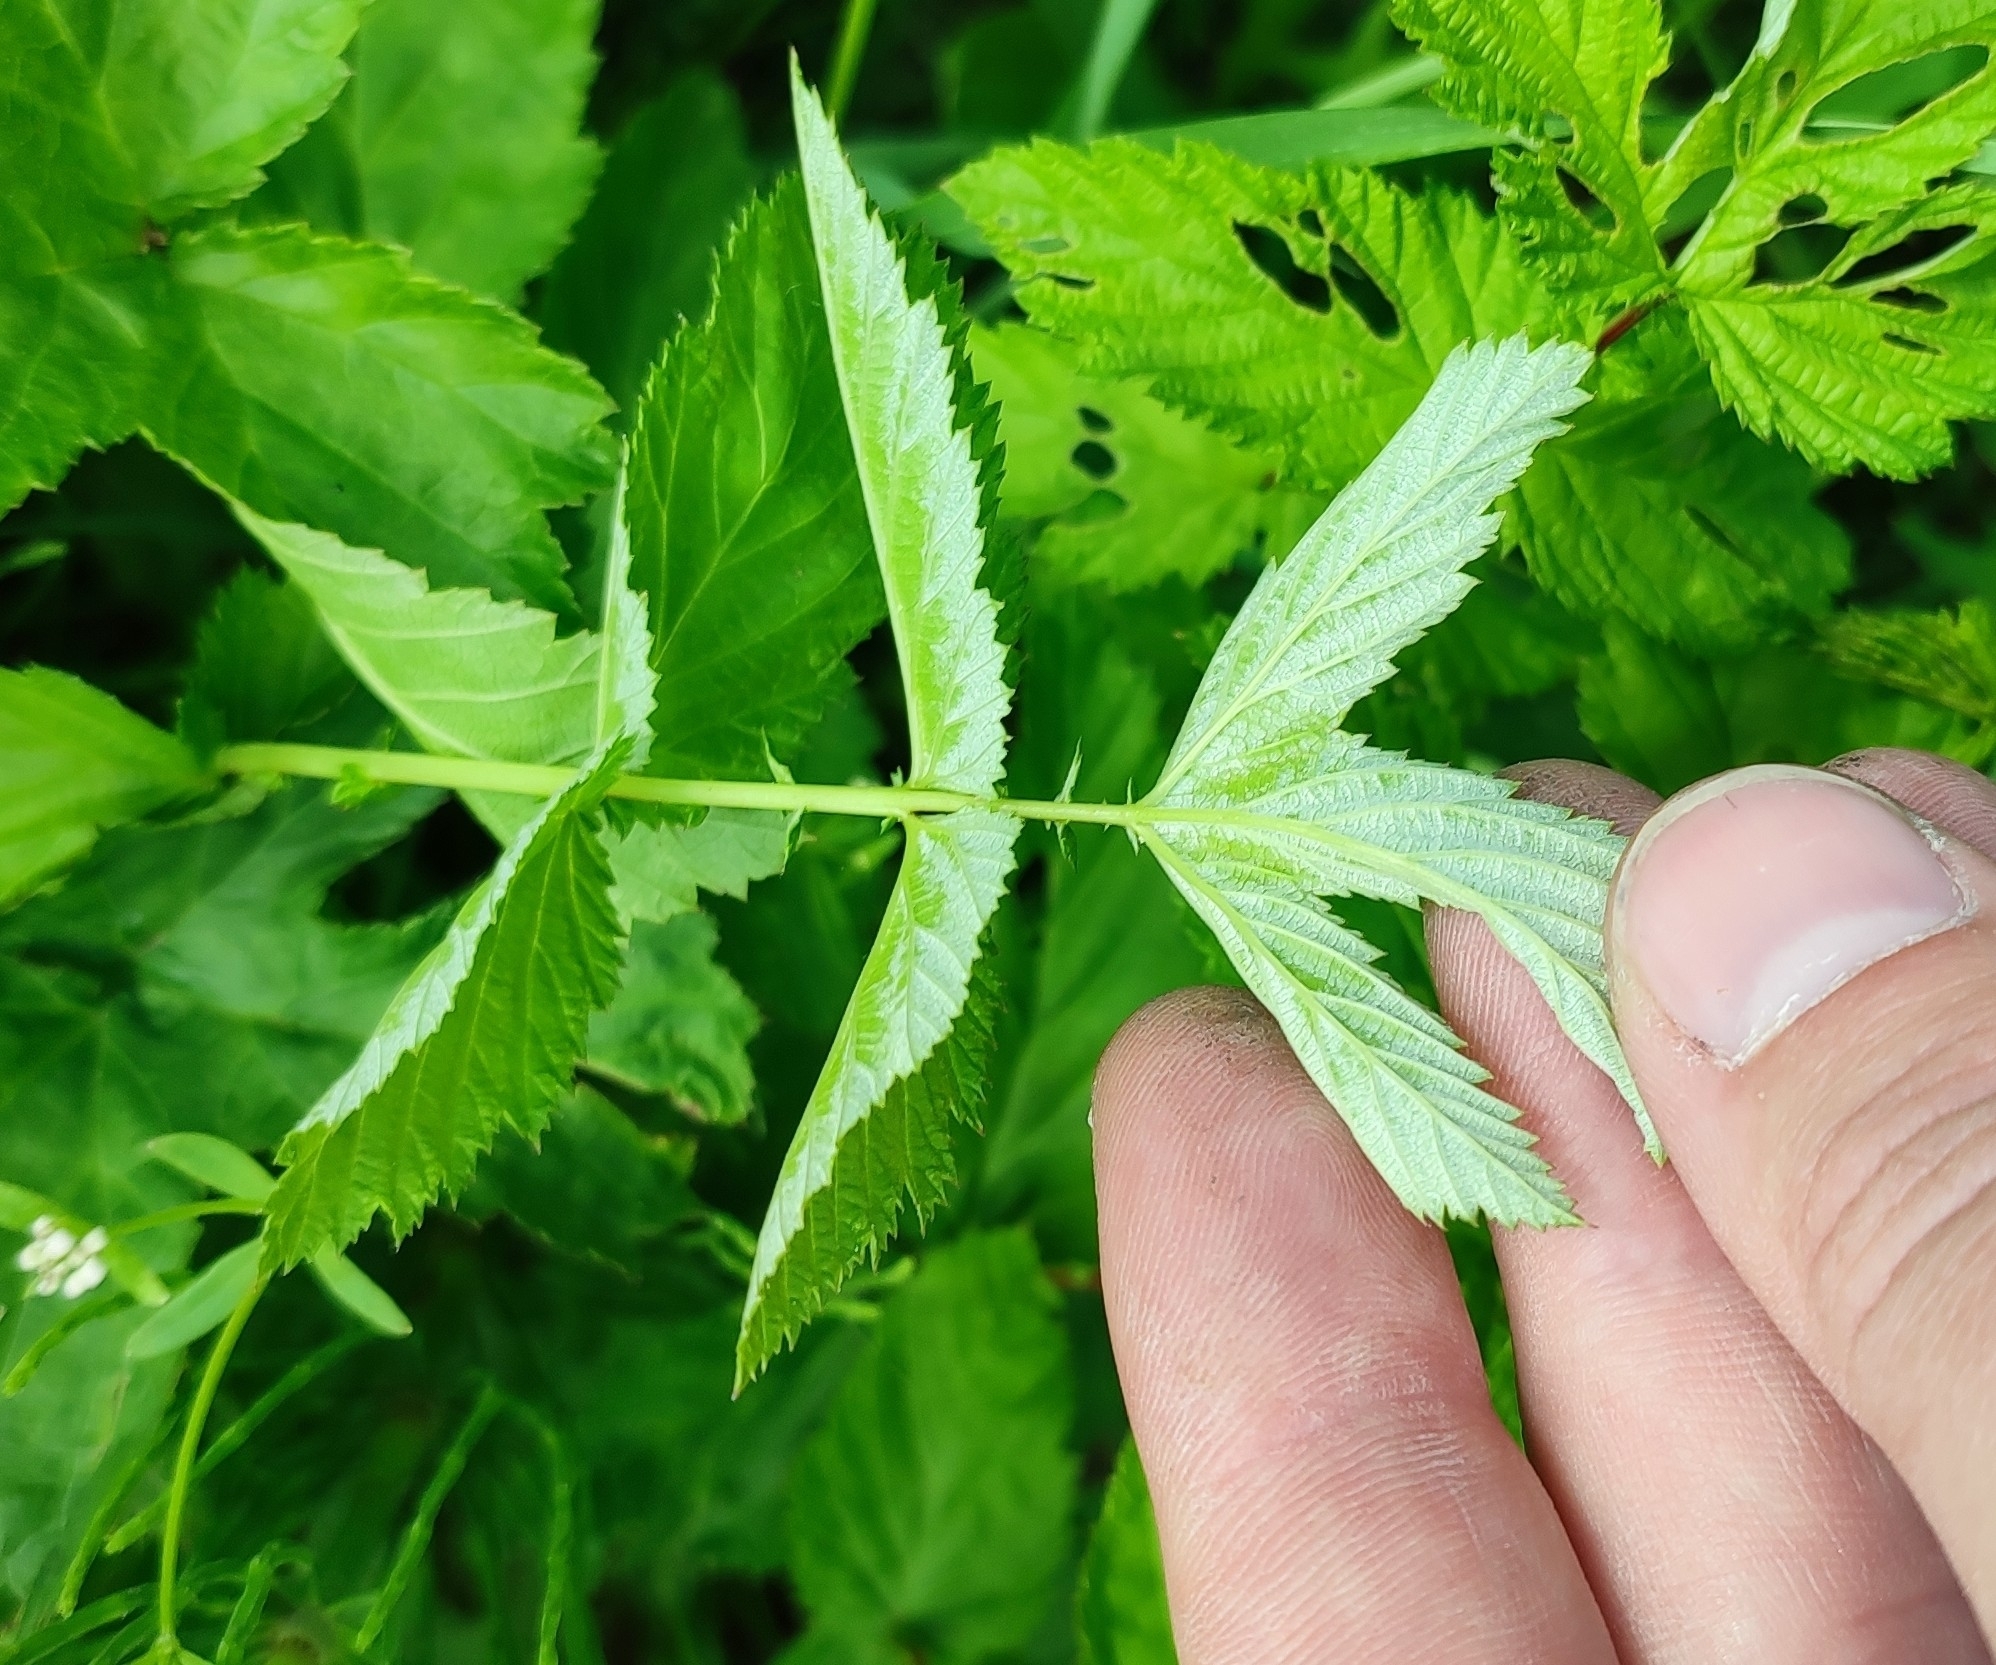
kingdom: Plantae
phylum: Tracheophyta
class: Magnoliopsida
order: Rosales
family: Rosaceae
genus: Filipendula
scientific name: Filipendula ulmaria
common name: Meadowsweet
